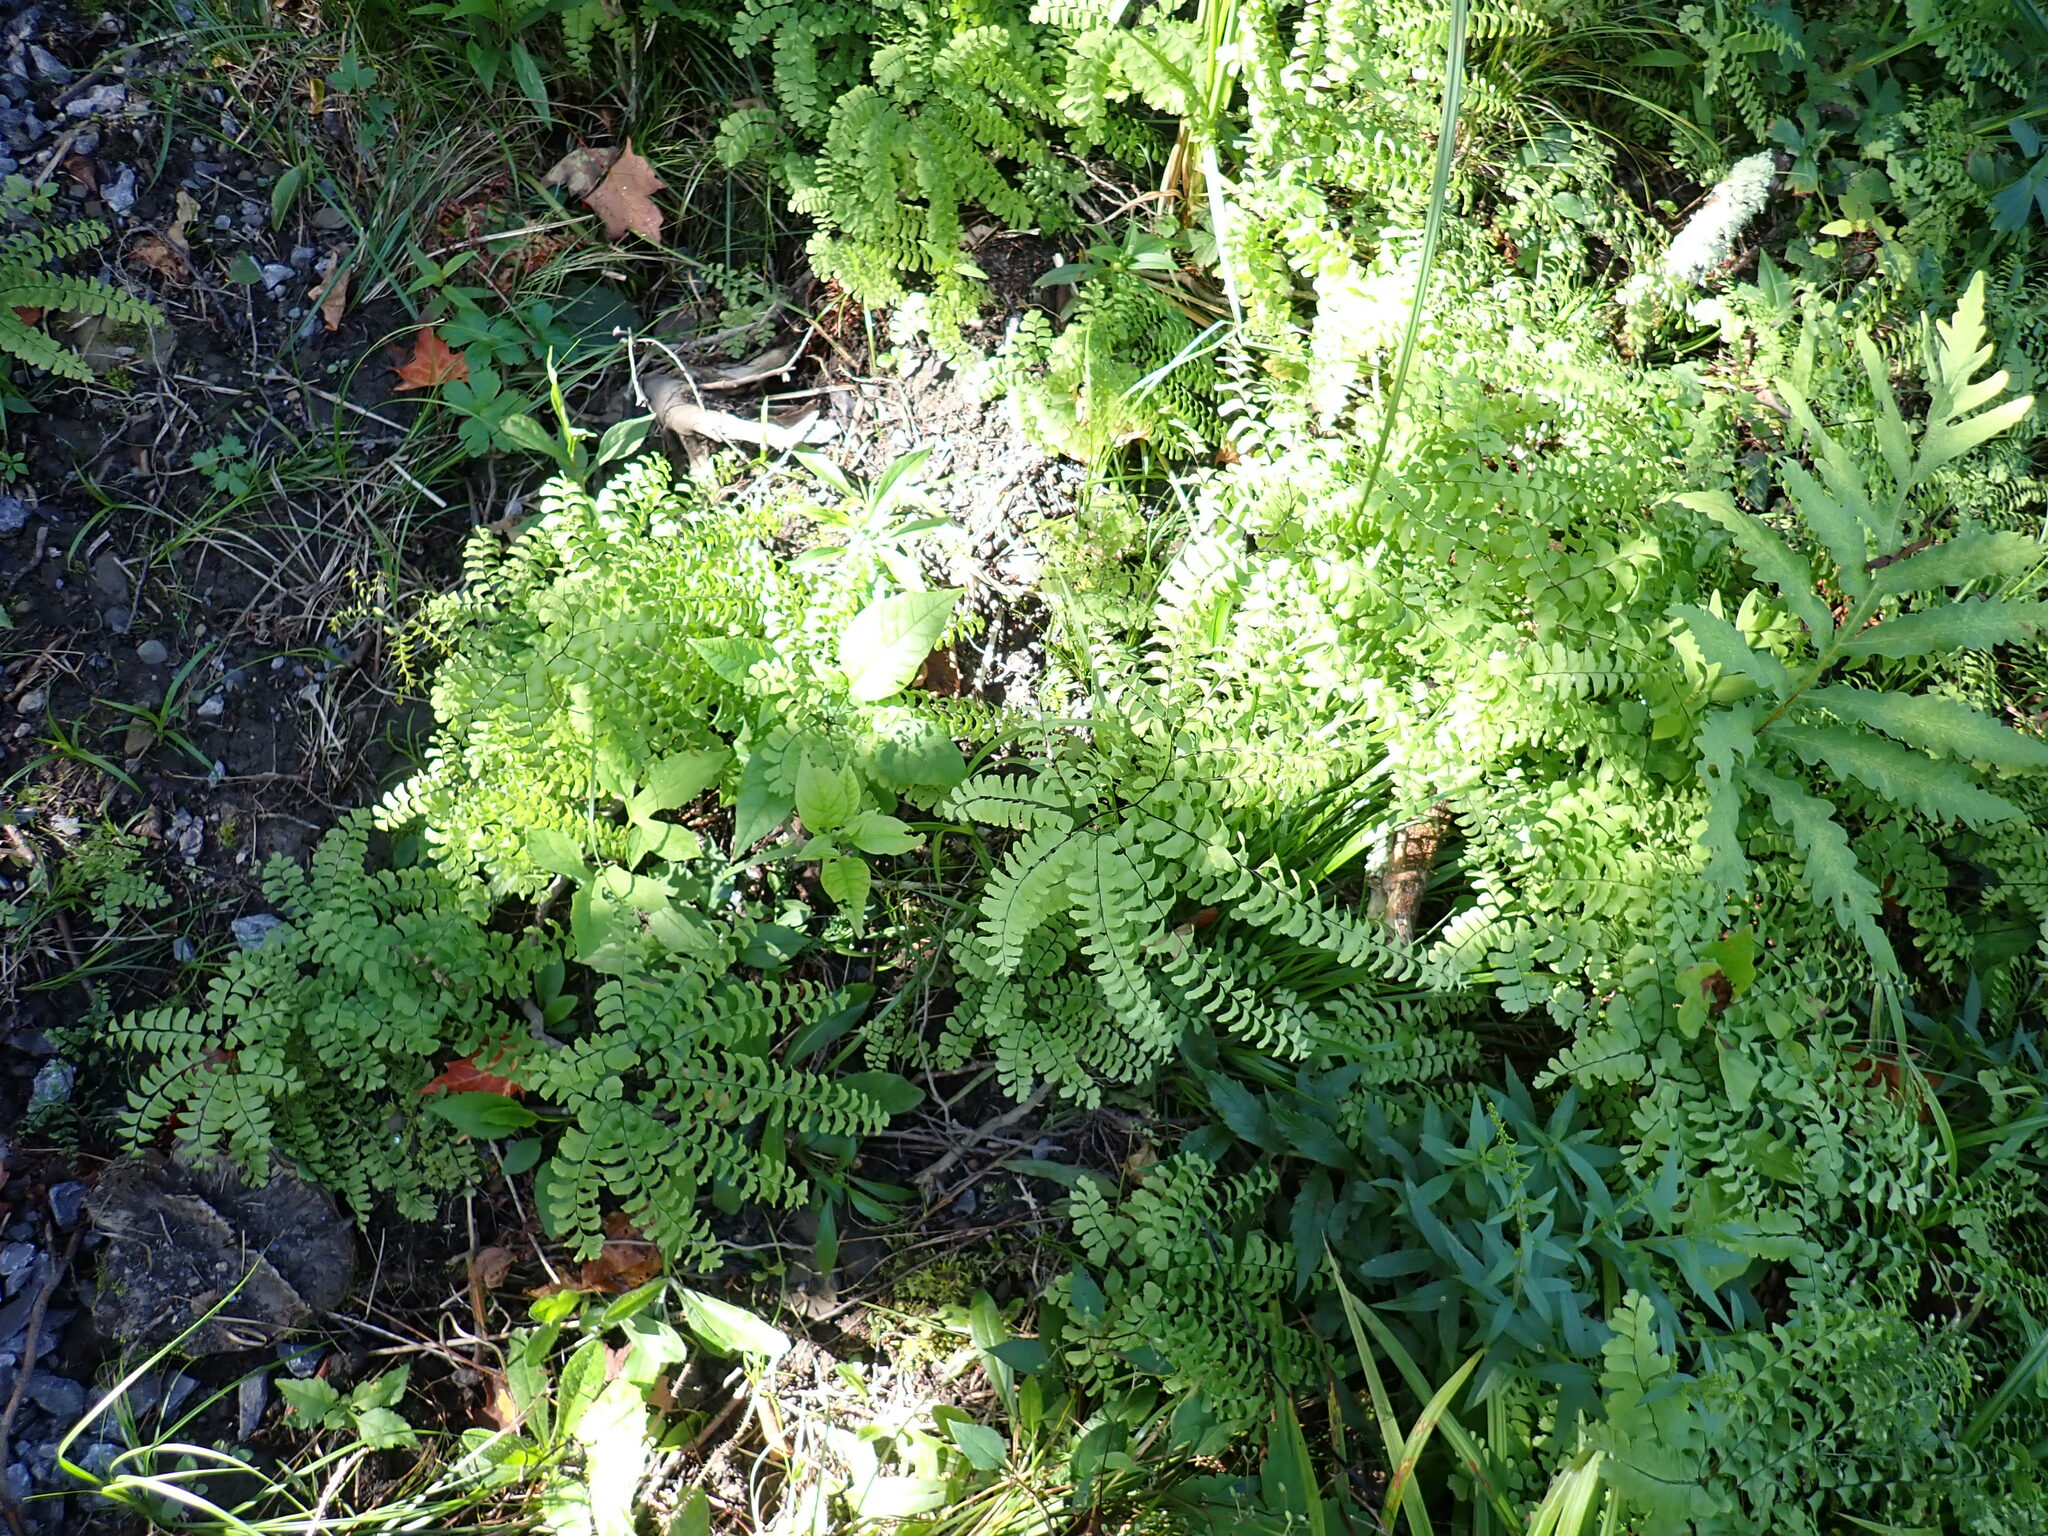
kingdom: Plantae
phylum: Tracheophyta
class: Polypodiopsida
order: Polypodiales
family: Pteridaceae
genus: Adiantum
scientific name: Adiantum pedatum
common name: Five-finger fern
